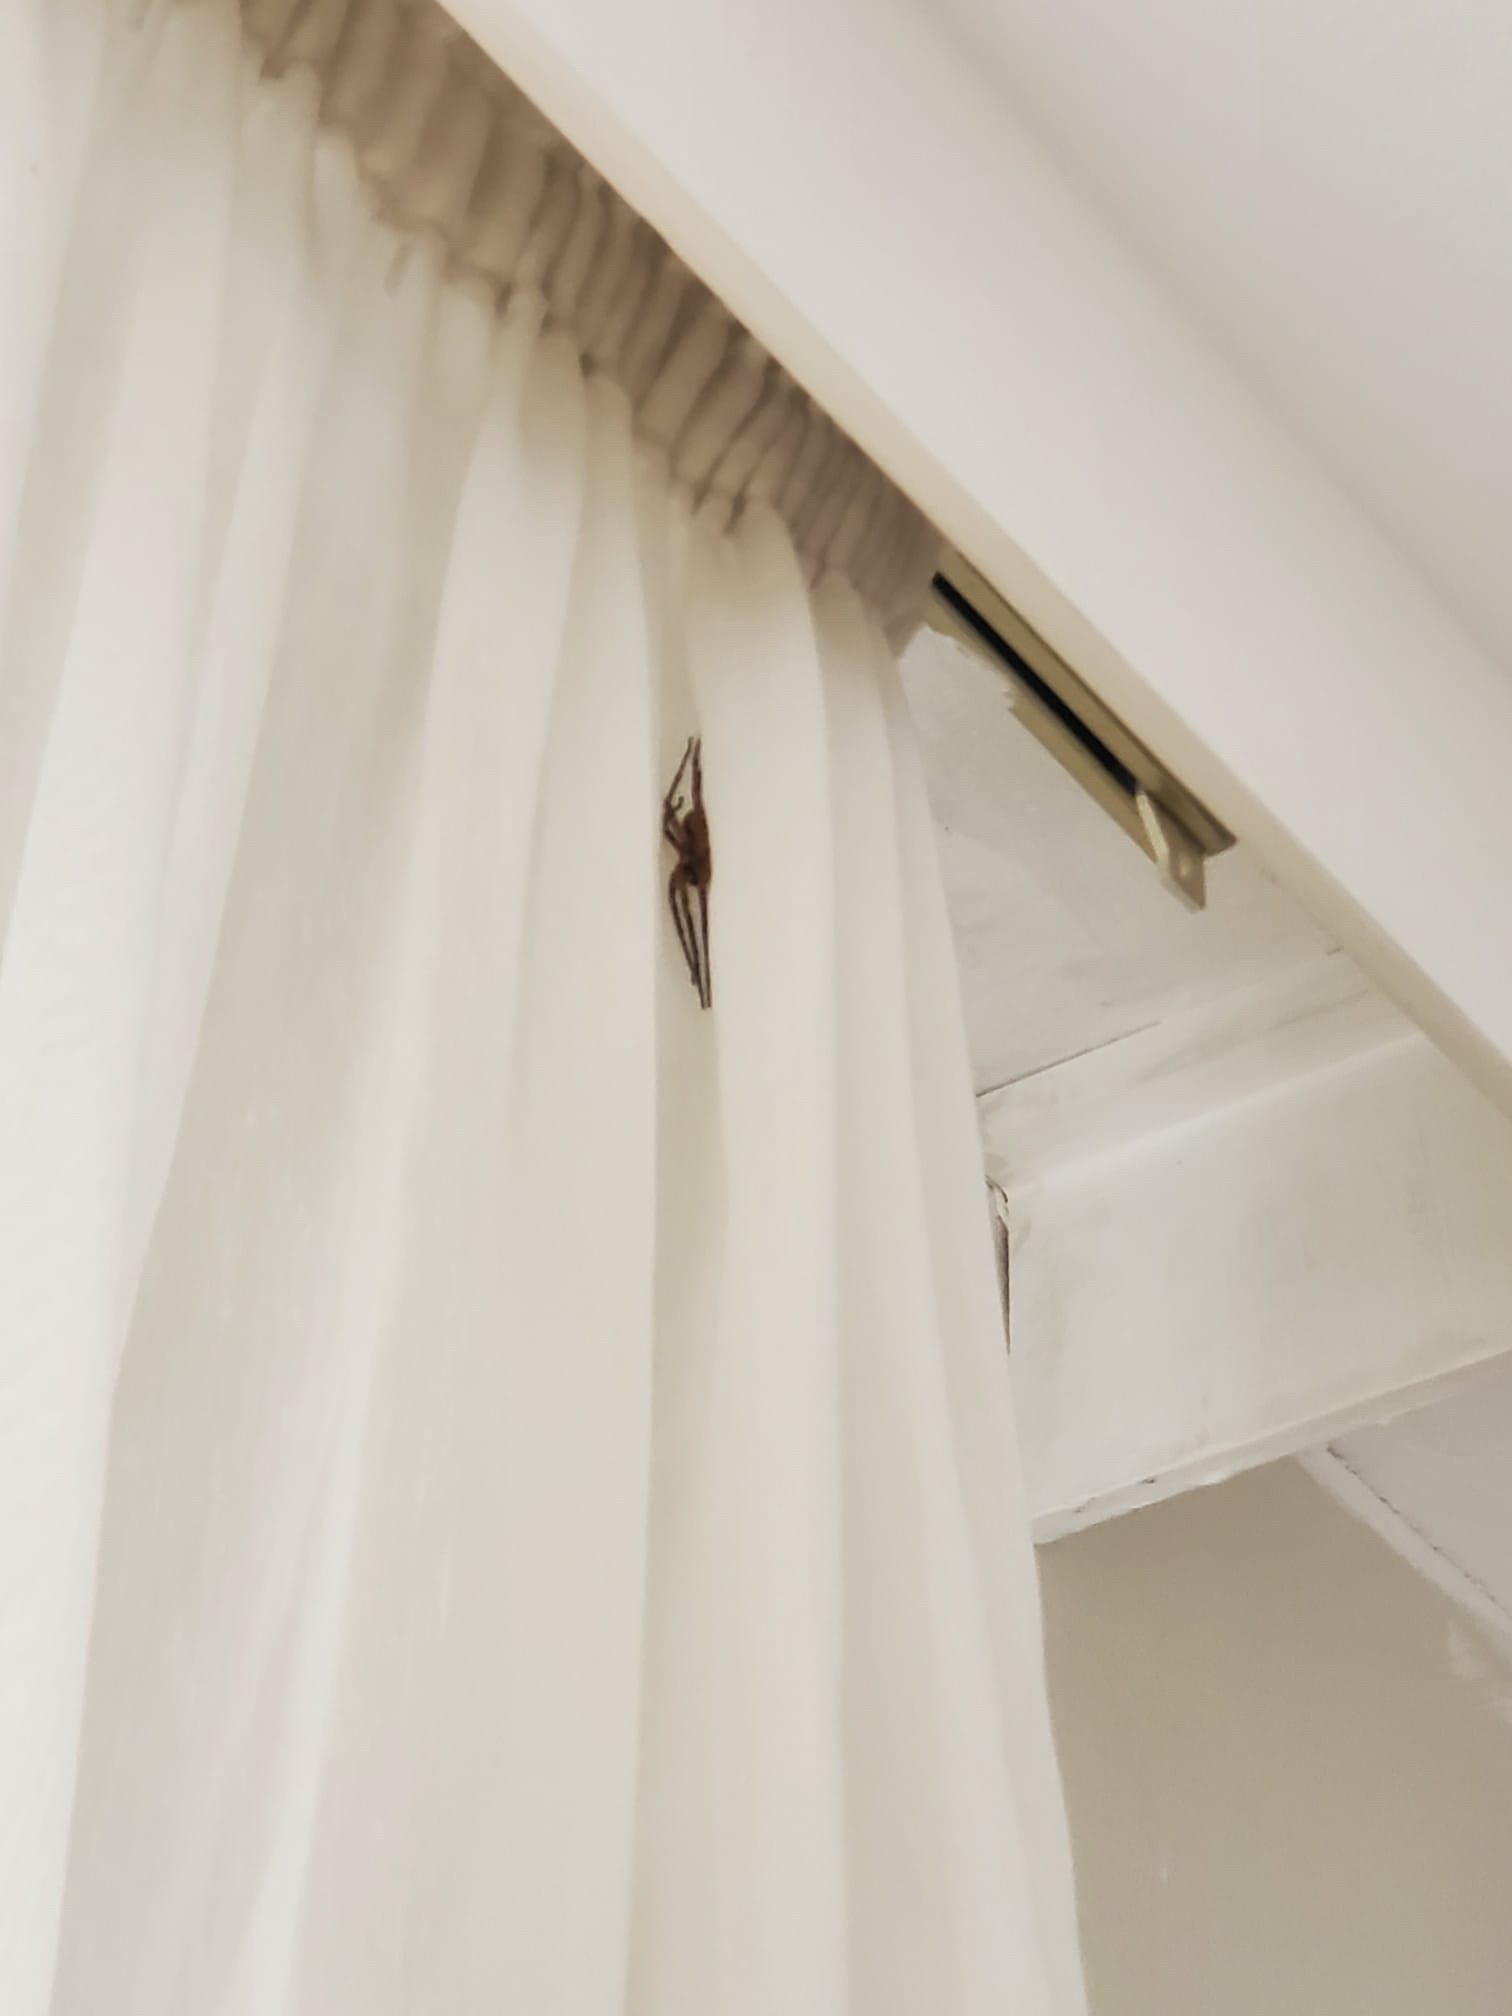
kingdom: Animalia
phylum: Arthropoda
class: Arachnida
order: Araneae
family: Zoropsidae
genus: Zoropsis
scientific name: Zoropsis spinimana
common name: Zoropsid spider
